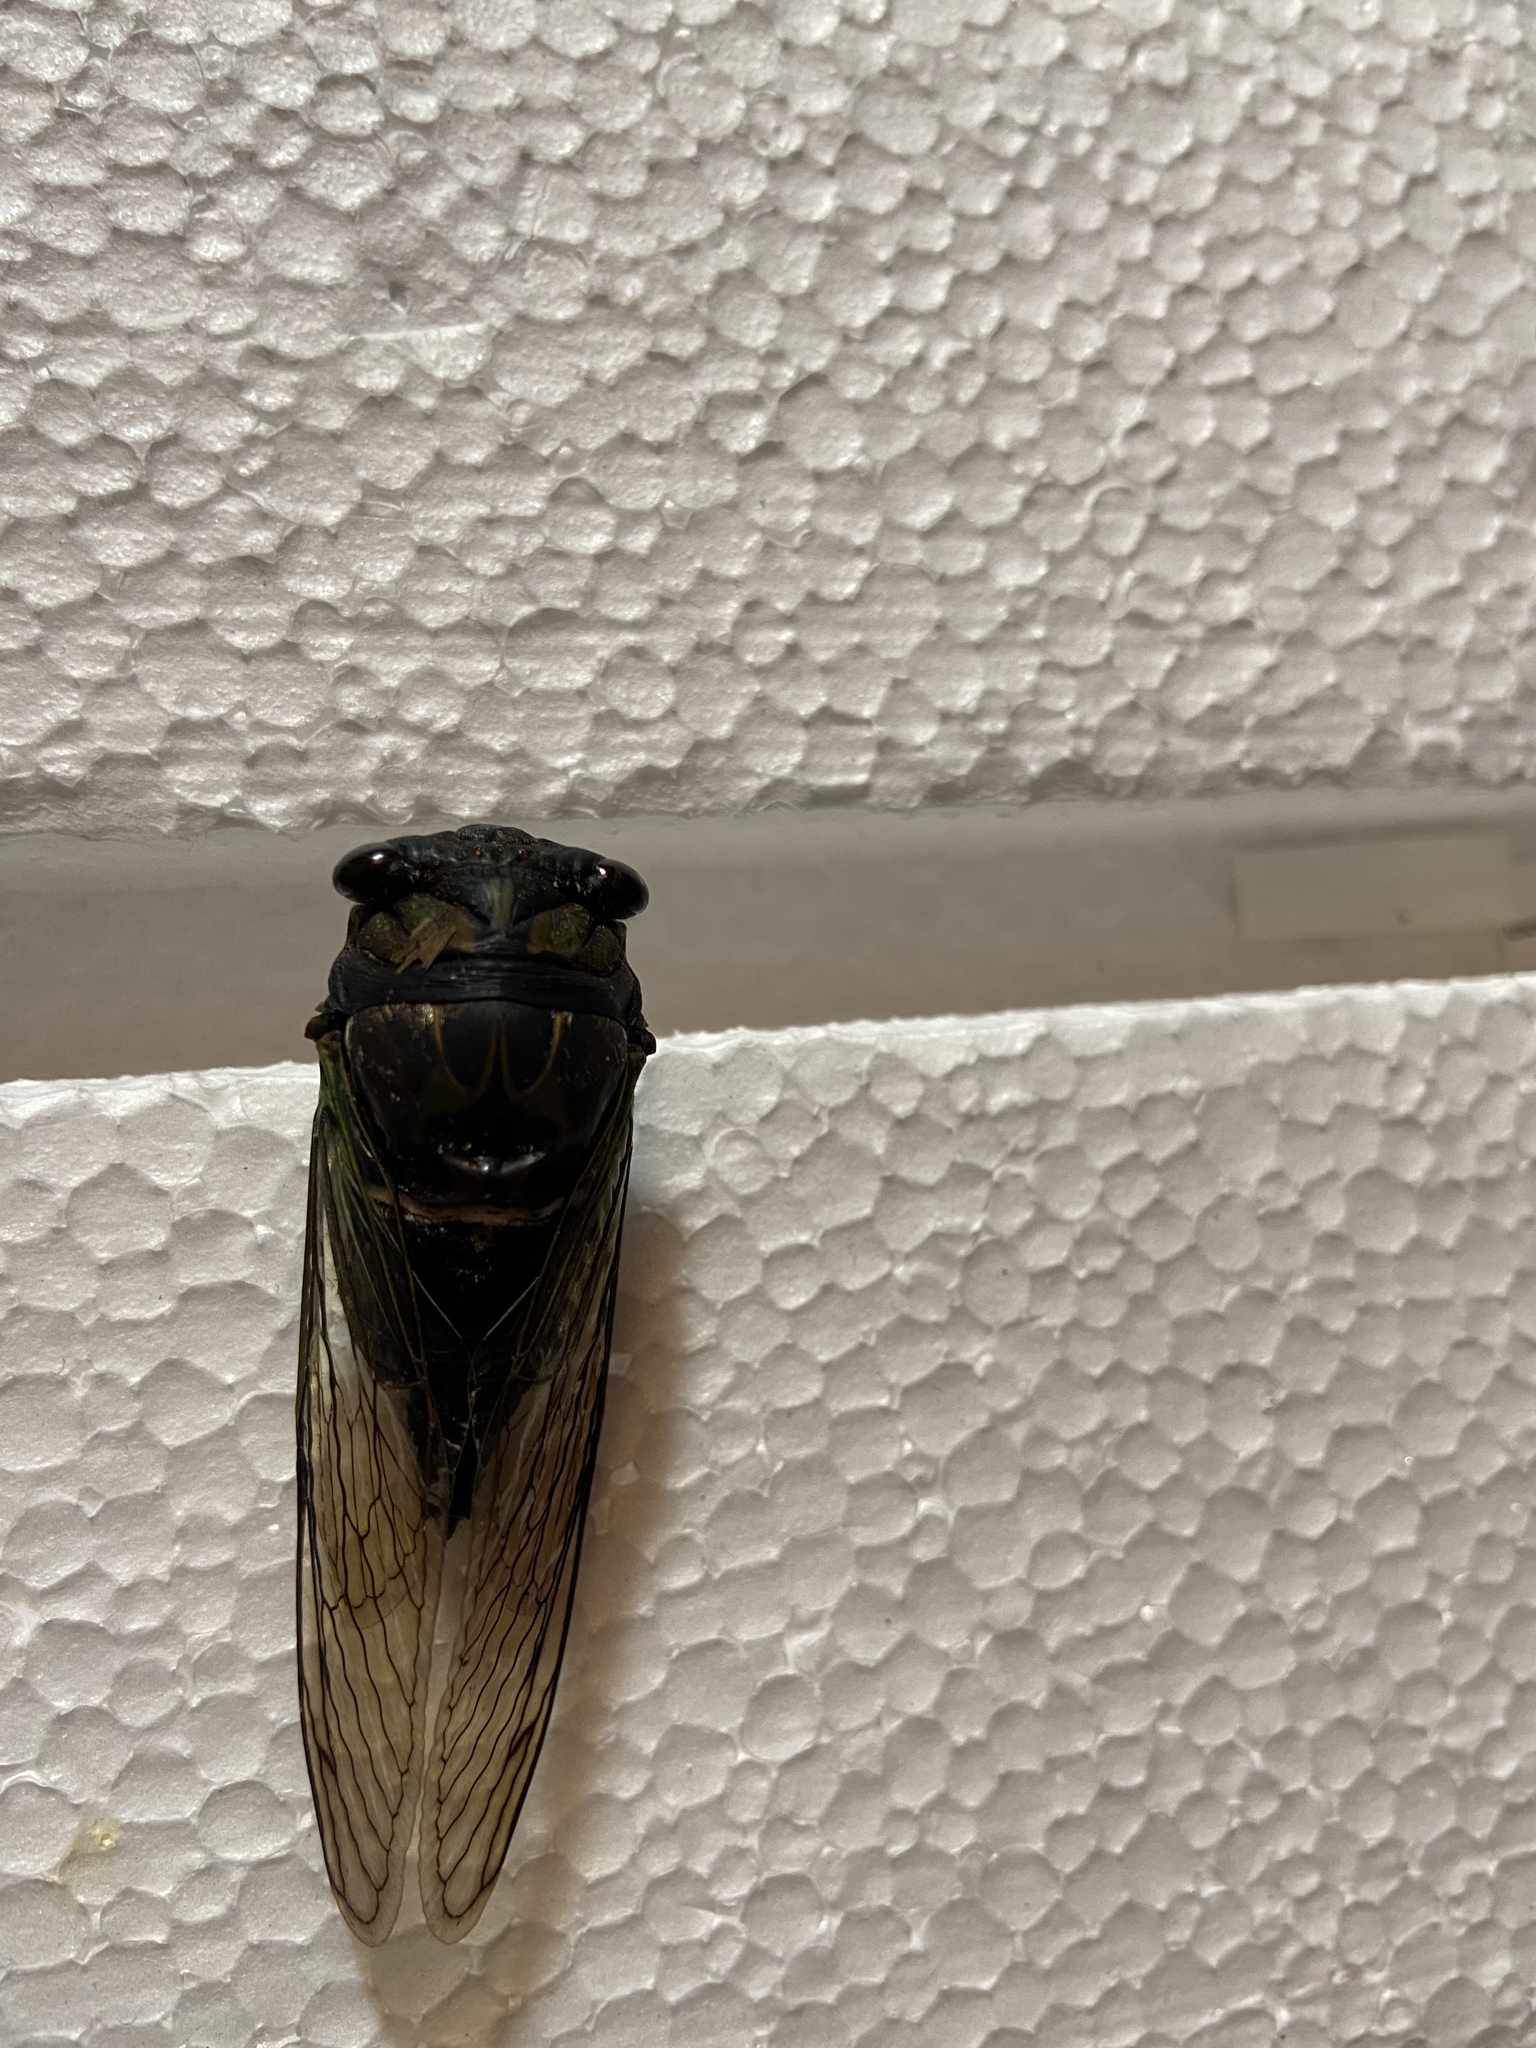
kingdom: Animalia
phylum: Arthropoda
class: Insecta
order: Hemiptera
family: Cicadidae
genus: Neotibicen
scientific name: Neotibicen lyricen
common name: Lyric cicada
